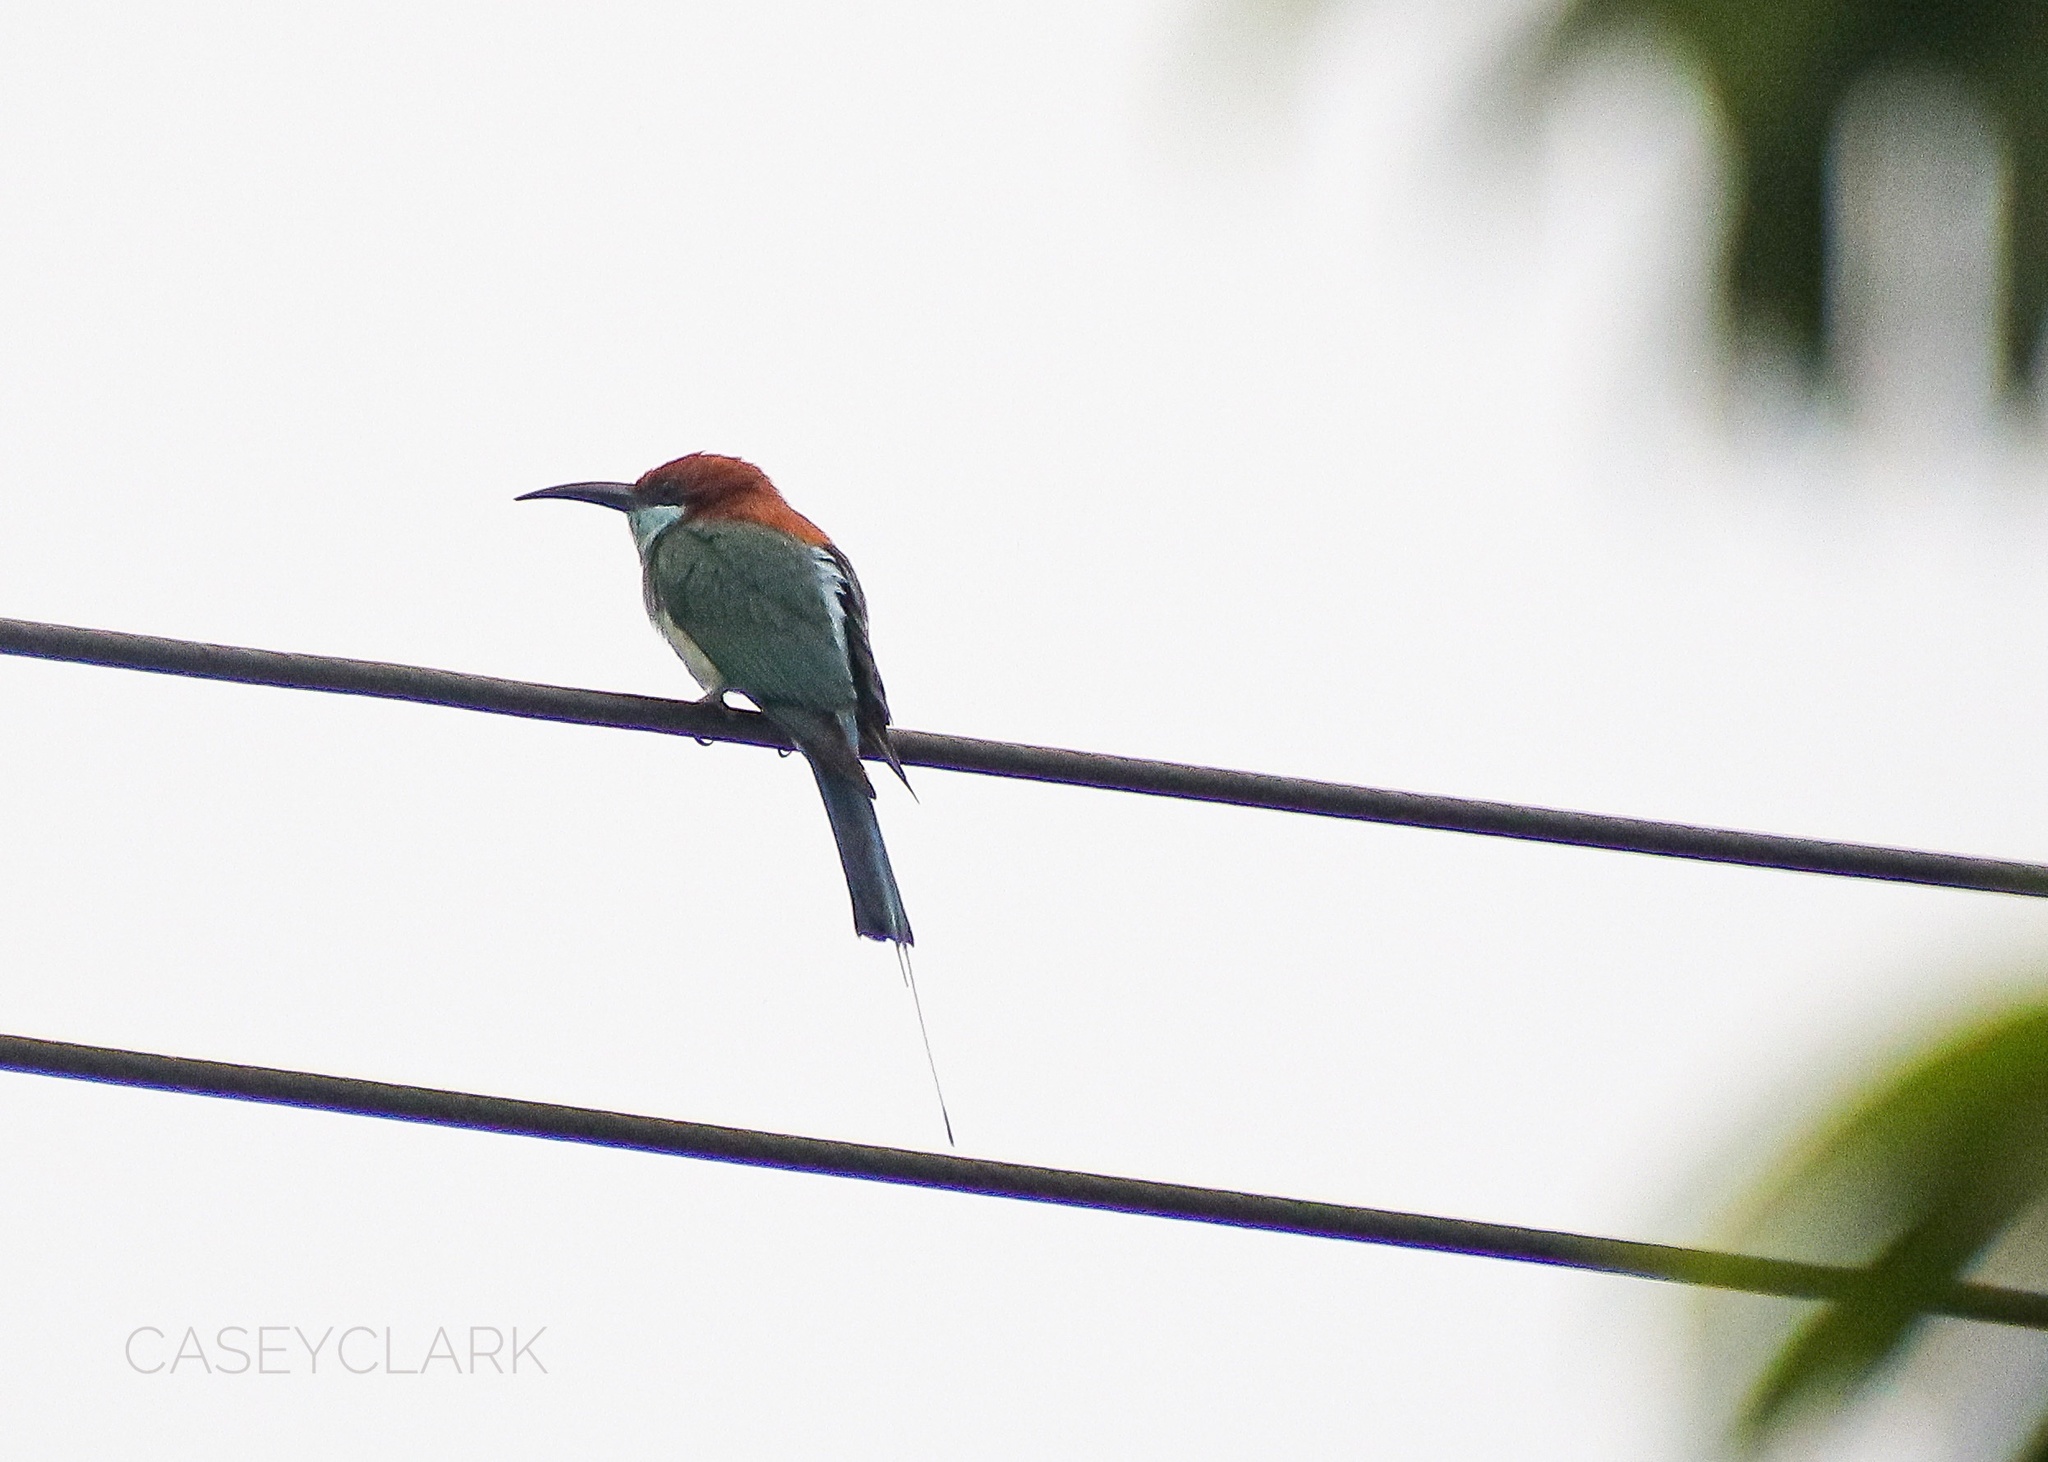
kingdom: Animalia
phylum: Chordata
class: Aves
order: Coraciiformes
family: Meropidae
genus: Merops
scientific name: Merops americanus
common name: Rufous-crowned bee-eater
